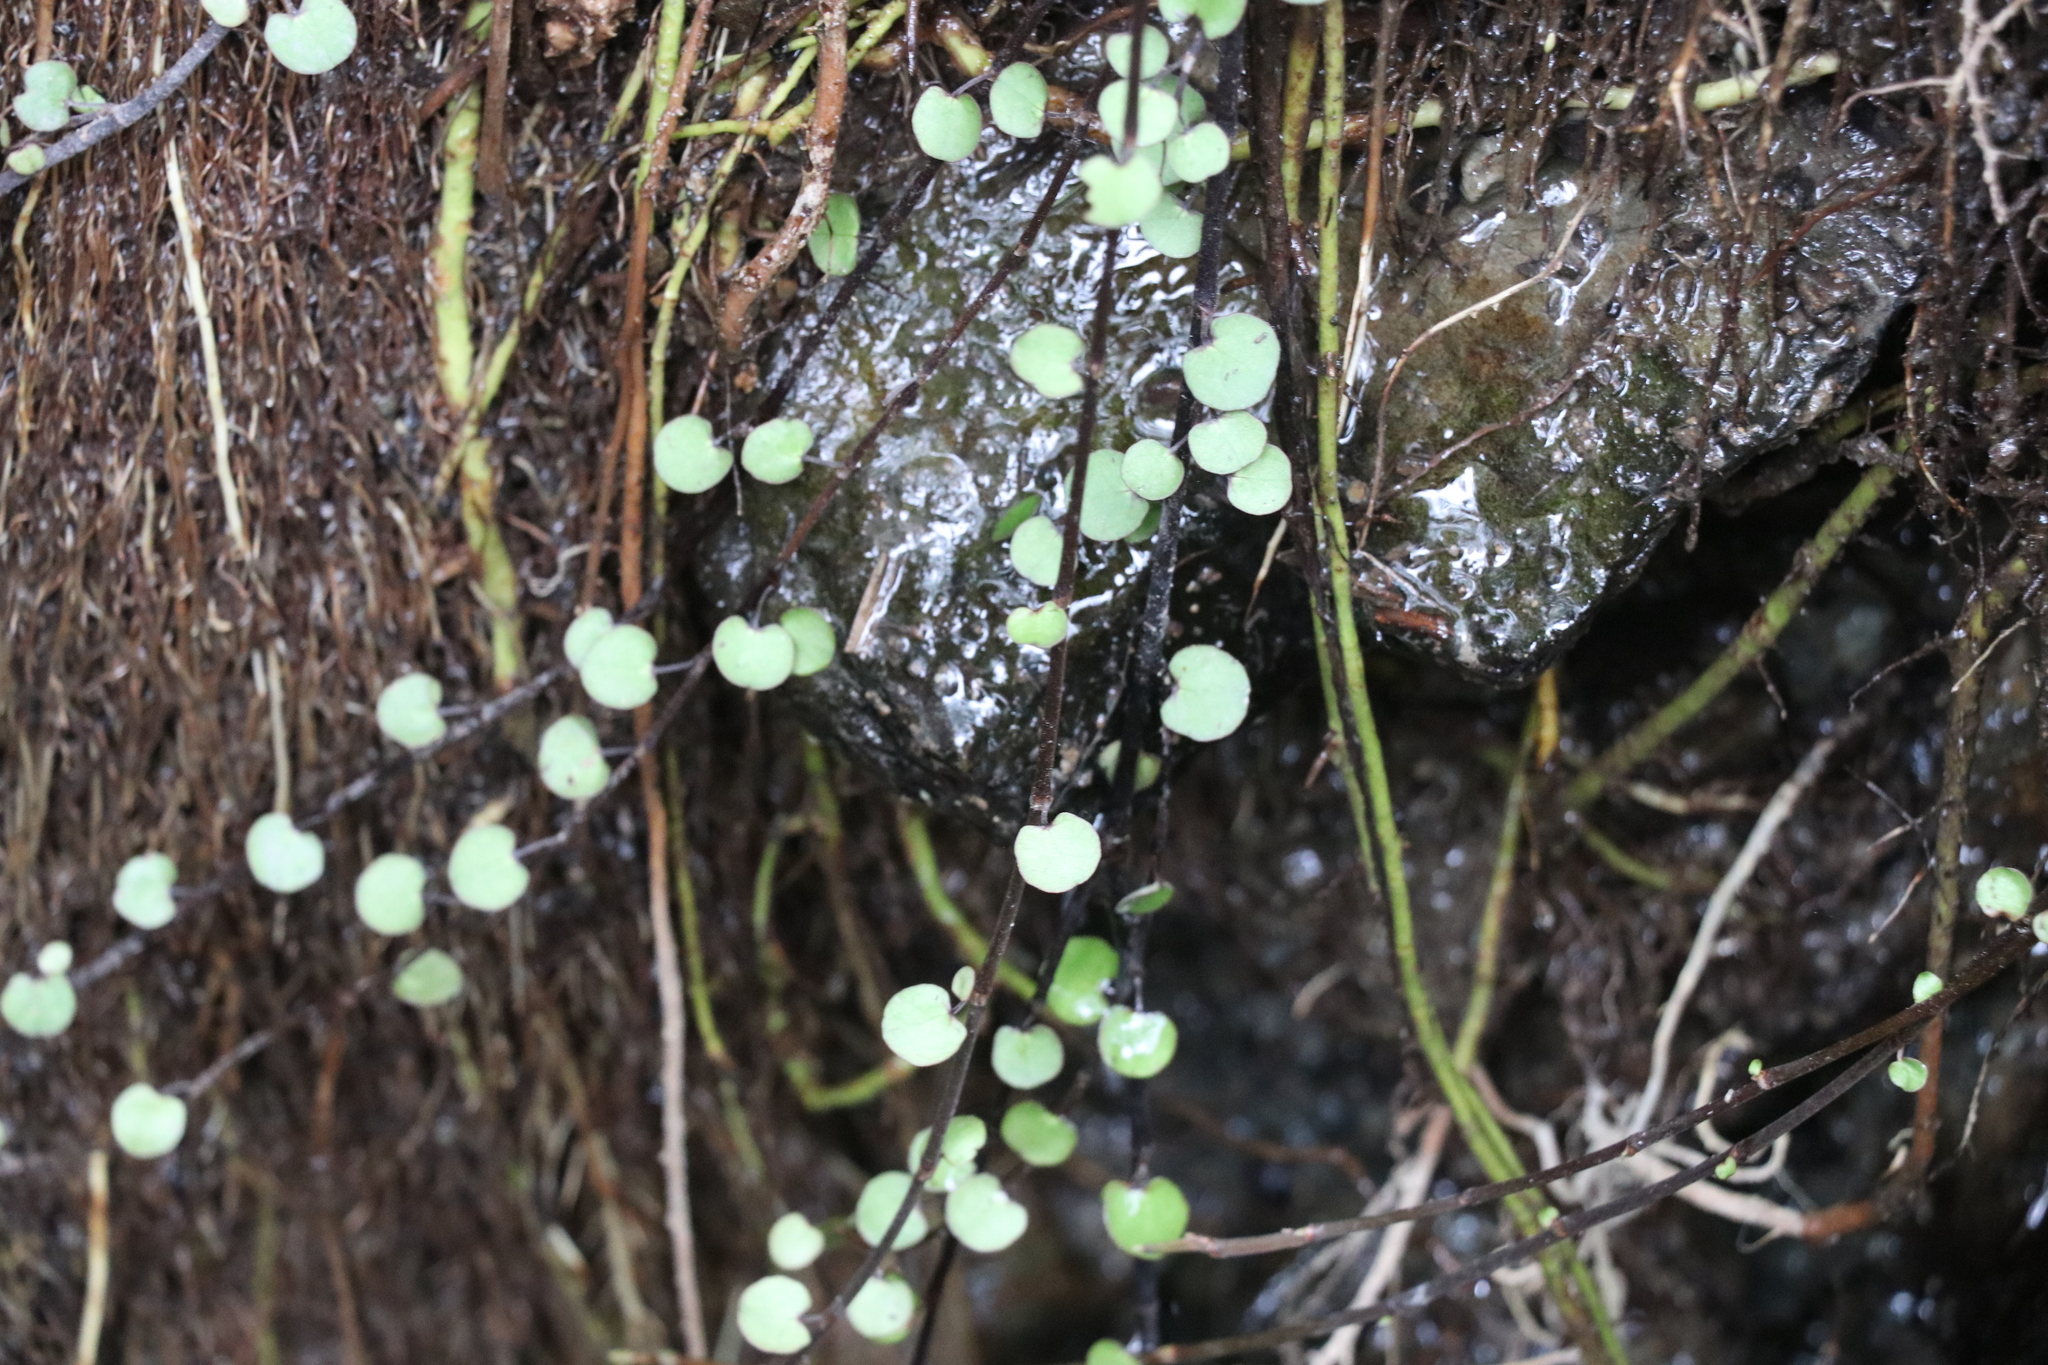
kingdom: Plantae
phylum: Tracheophyta
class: Magnoliopsida
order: Caryophyllales
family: Polygonaceae
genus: Muehlenbeckia
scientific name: Muehlenbeckia complexa
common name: Wireplant
